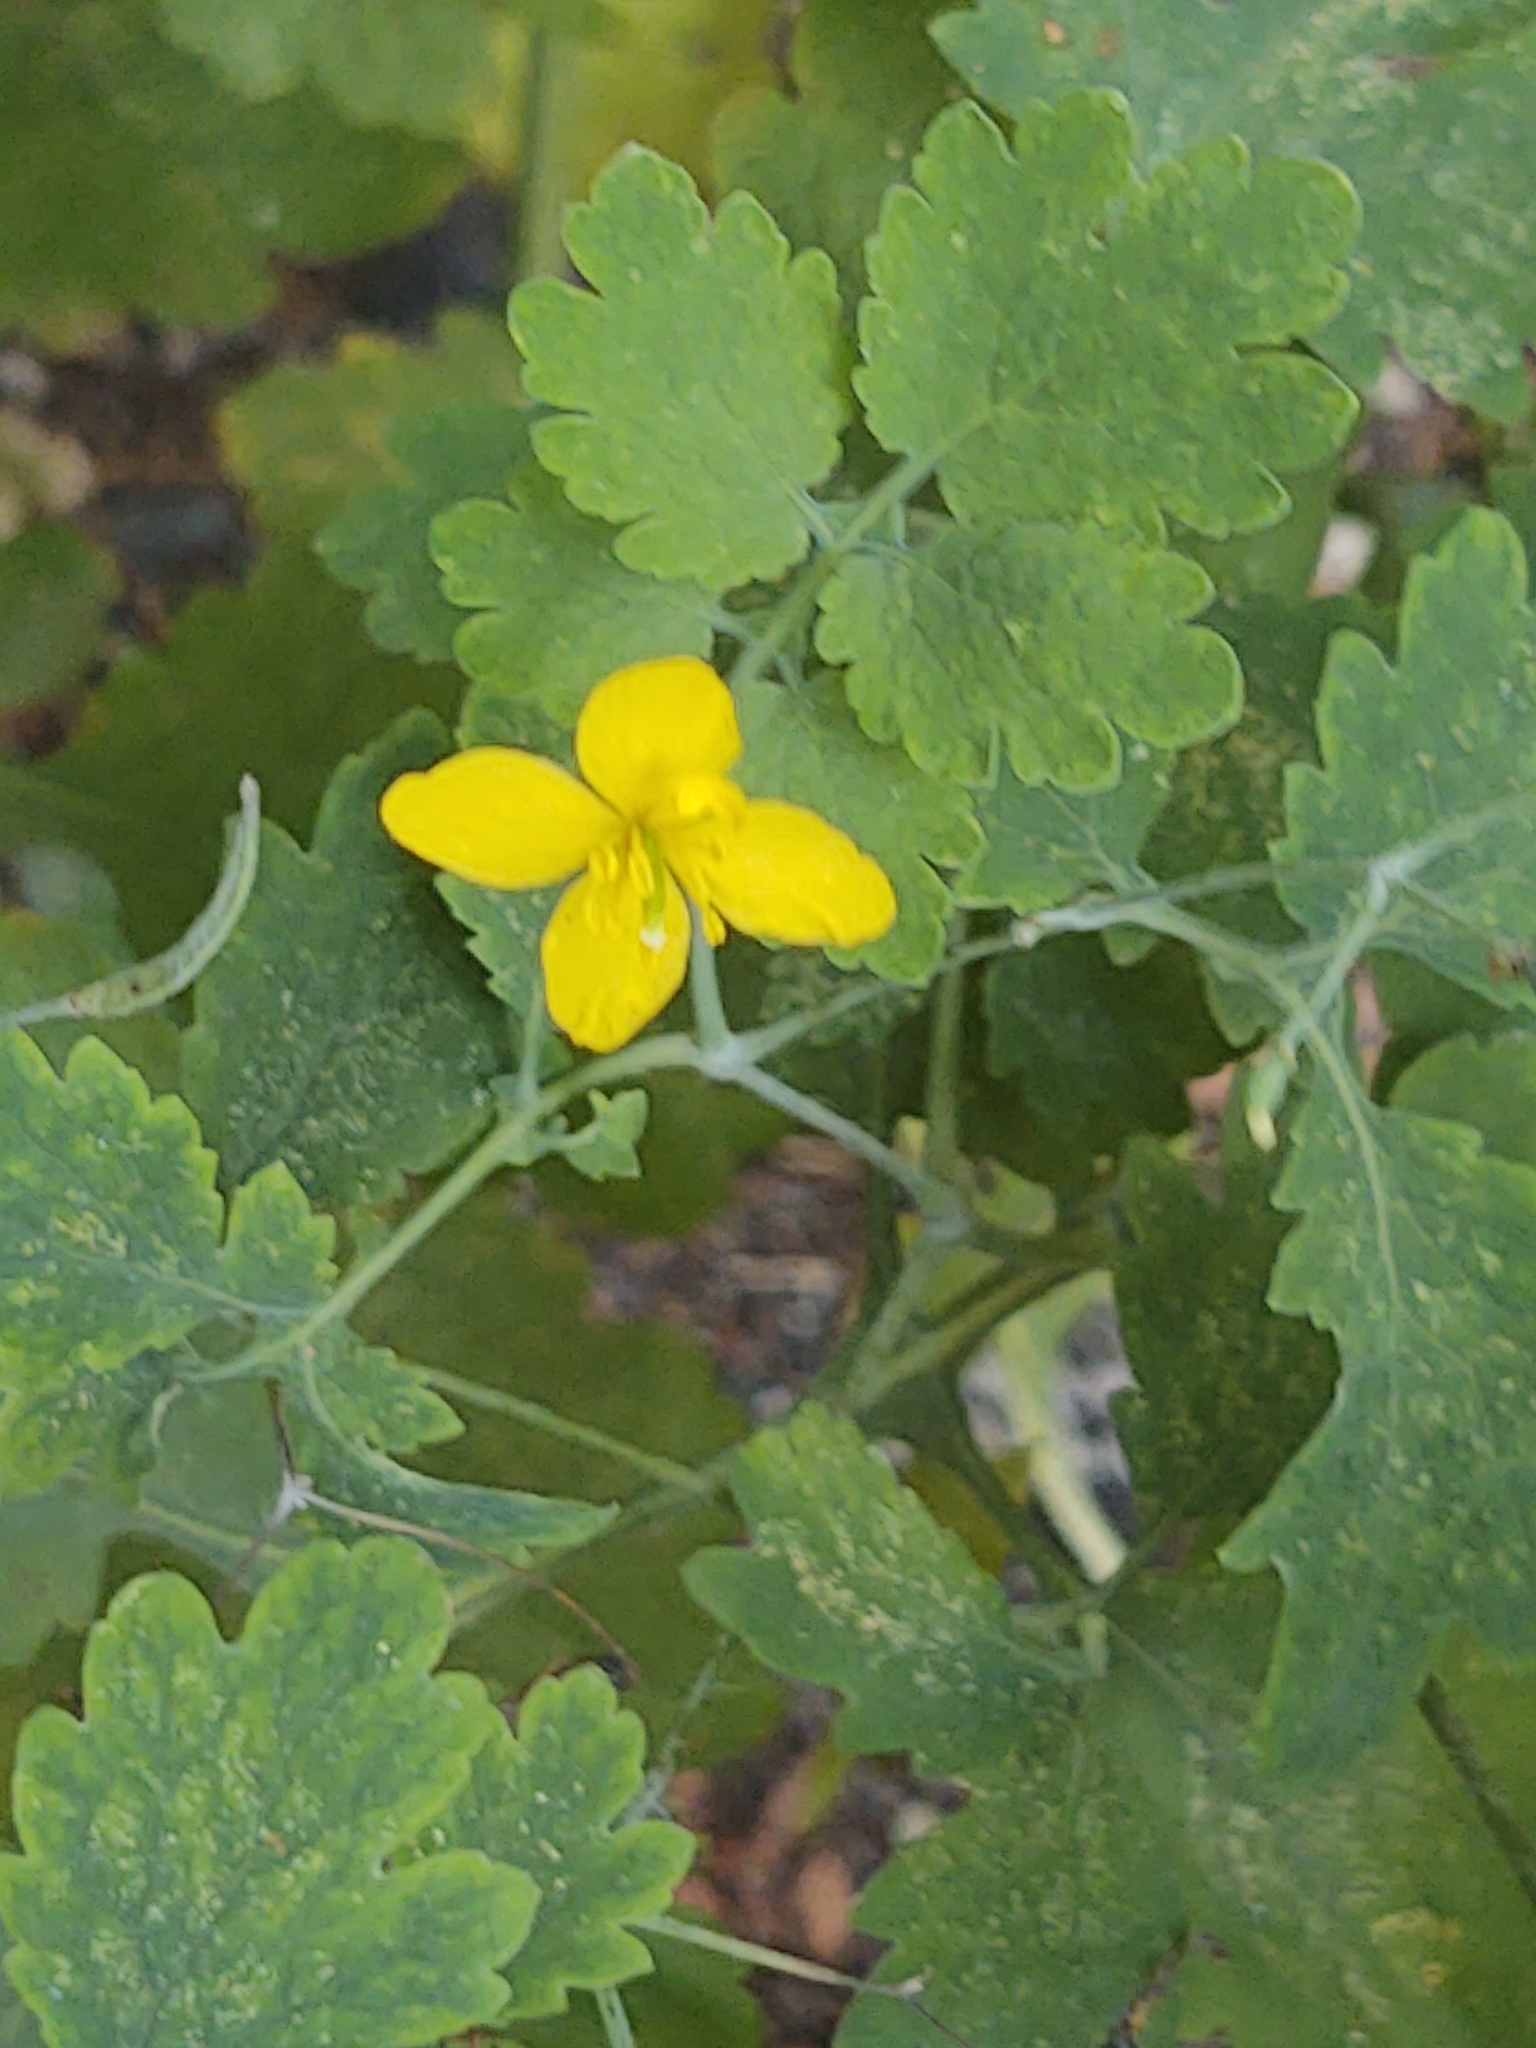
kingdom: Plantae
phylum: Tracheophyta
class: Magnoliopsida
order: Ranunculales
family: Papaveraceae
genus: Chelidonium
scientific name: Chelidonium majus
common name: Greater celandine
